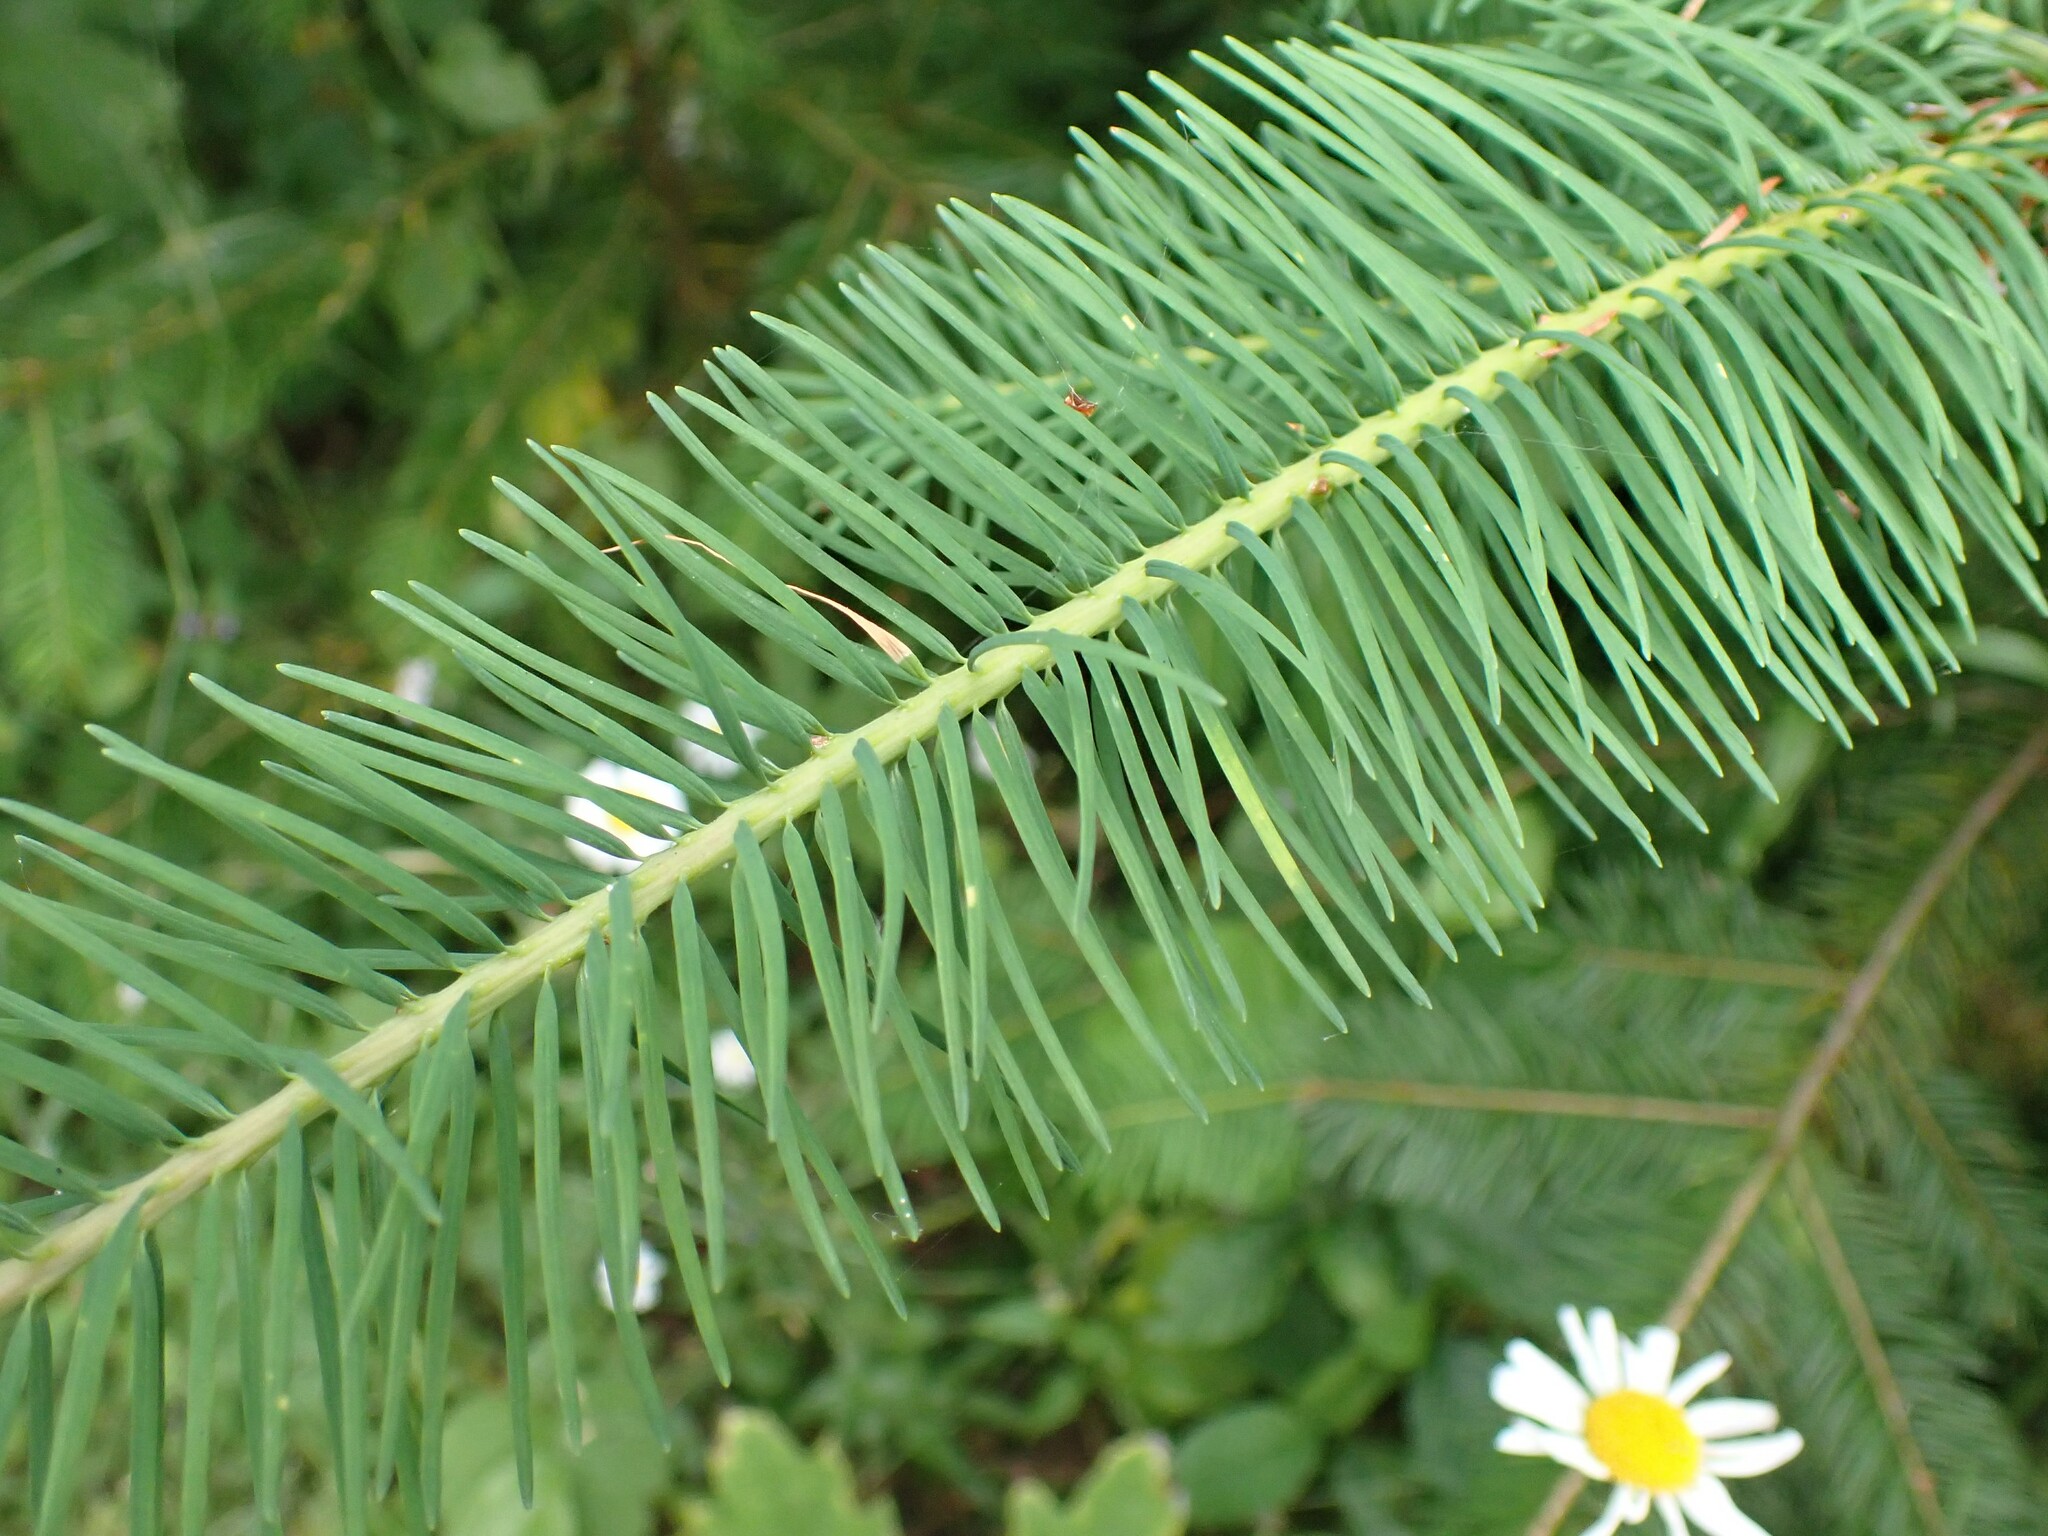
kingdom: Plantae
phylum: Tracheophyta
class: Pinopsida
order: Pinales
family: Pinaceae
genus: Pseudotsuga
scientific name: Pseudotsuga menziesii
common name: Douglas fir
